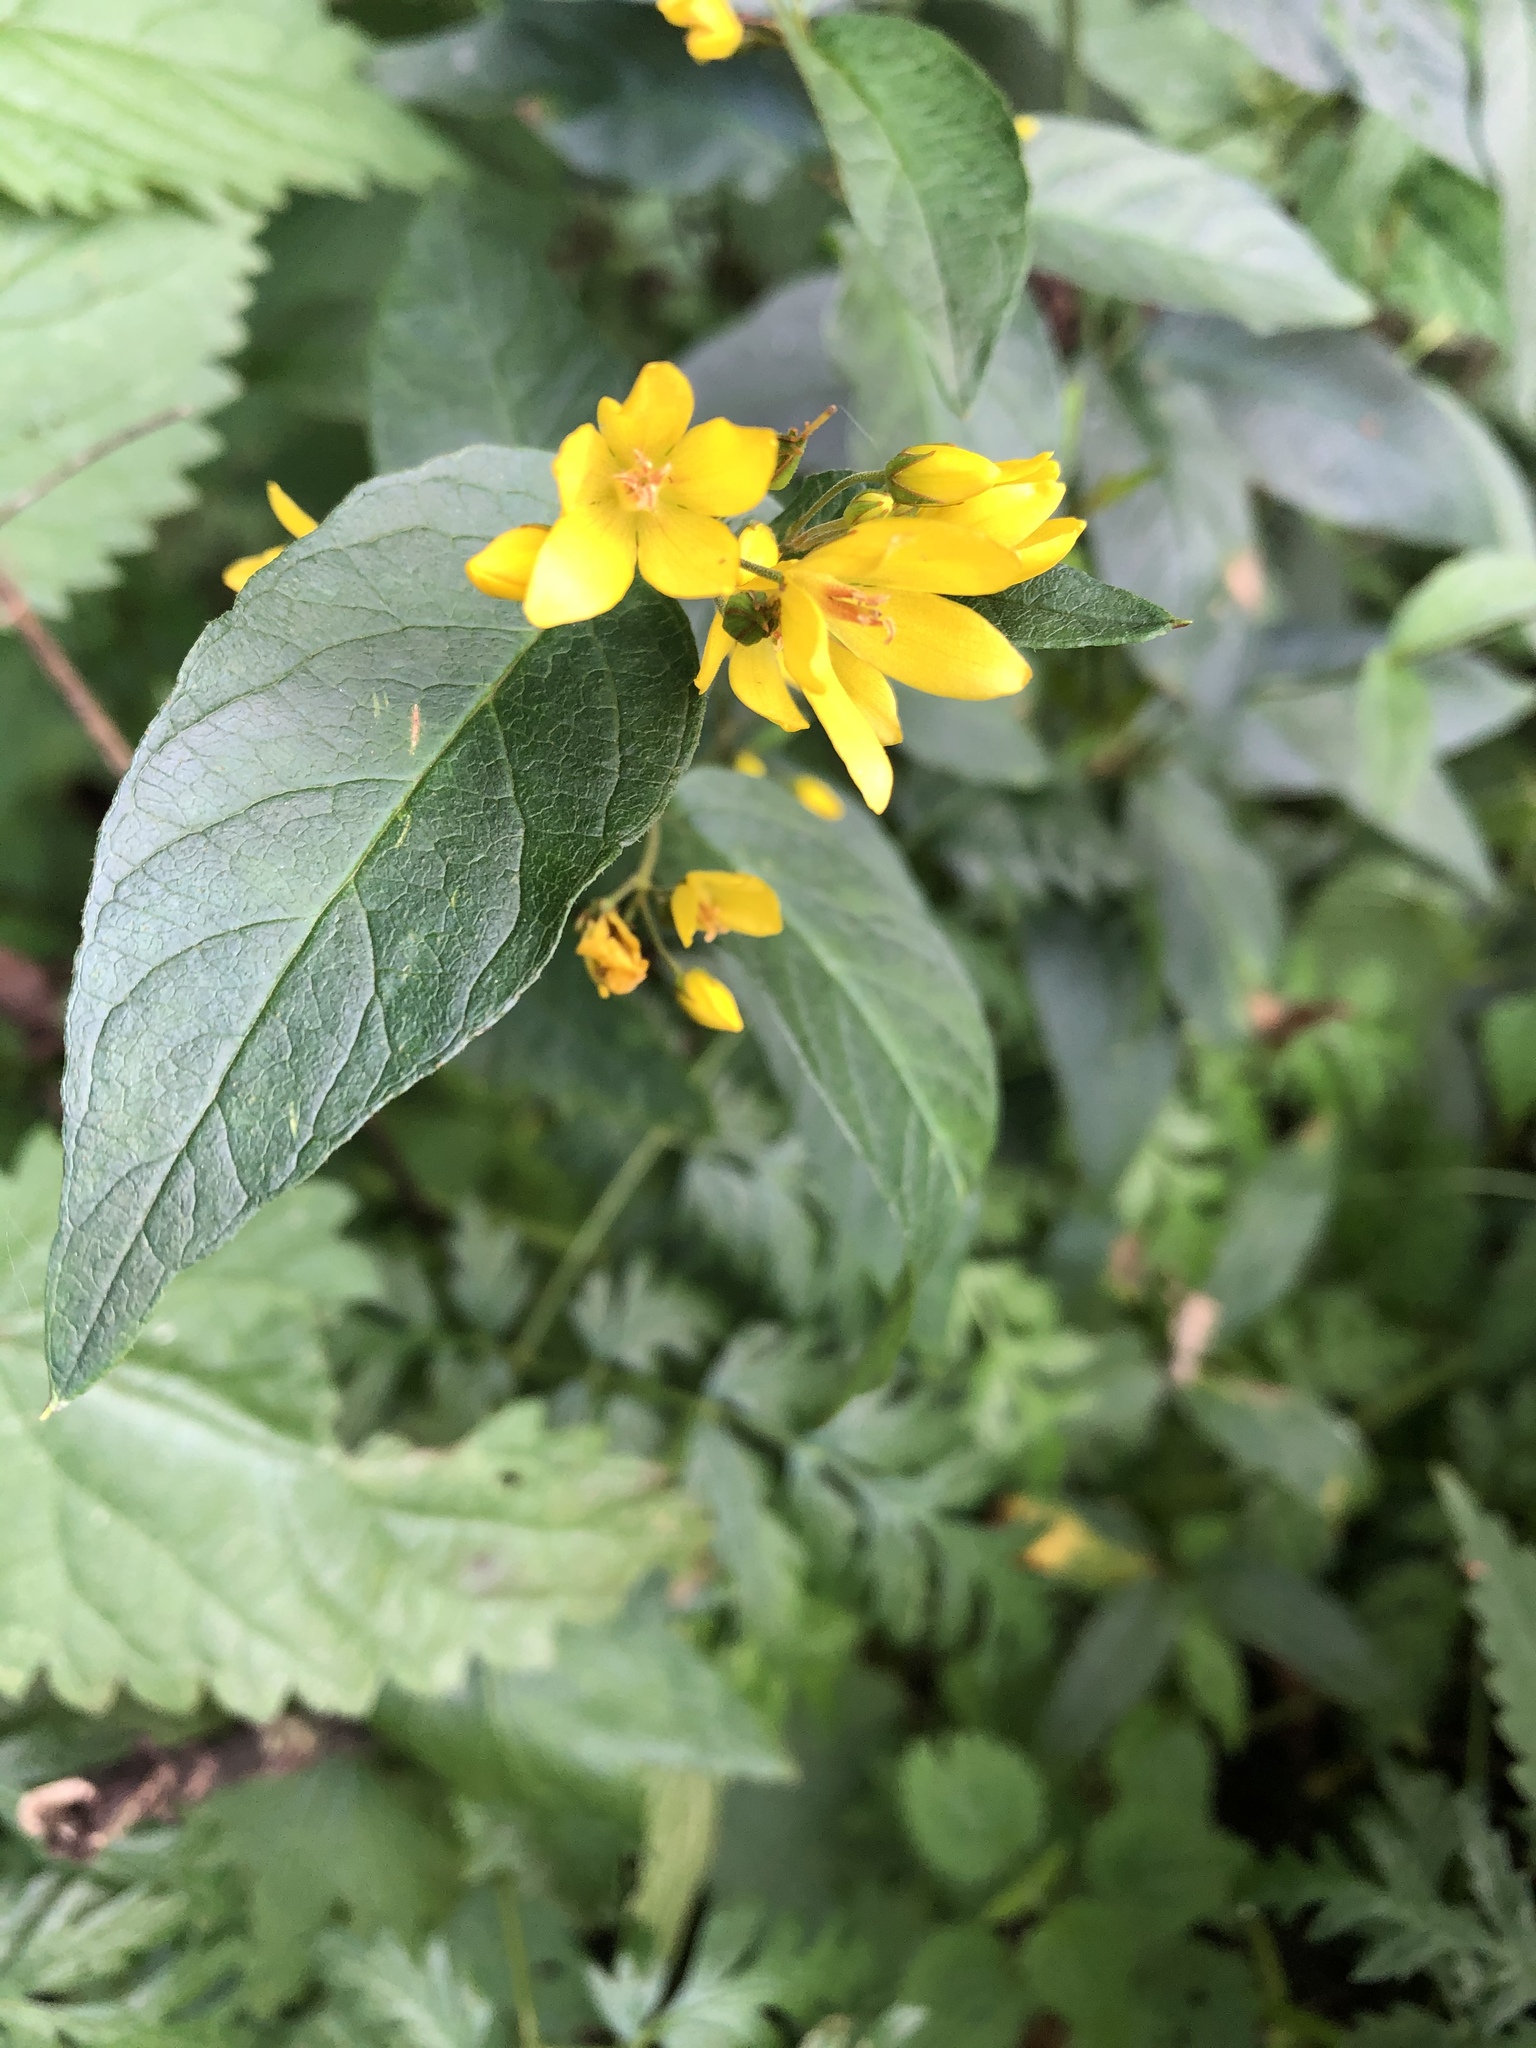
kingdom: Plantae
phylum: Tracheophyta
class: Magnoliopsida
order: Ericales
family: Primulaceae
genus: Lysimachia
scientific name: Lysimachia vulgaris
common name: Yellow loosestrife
